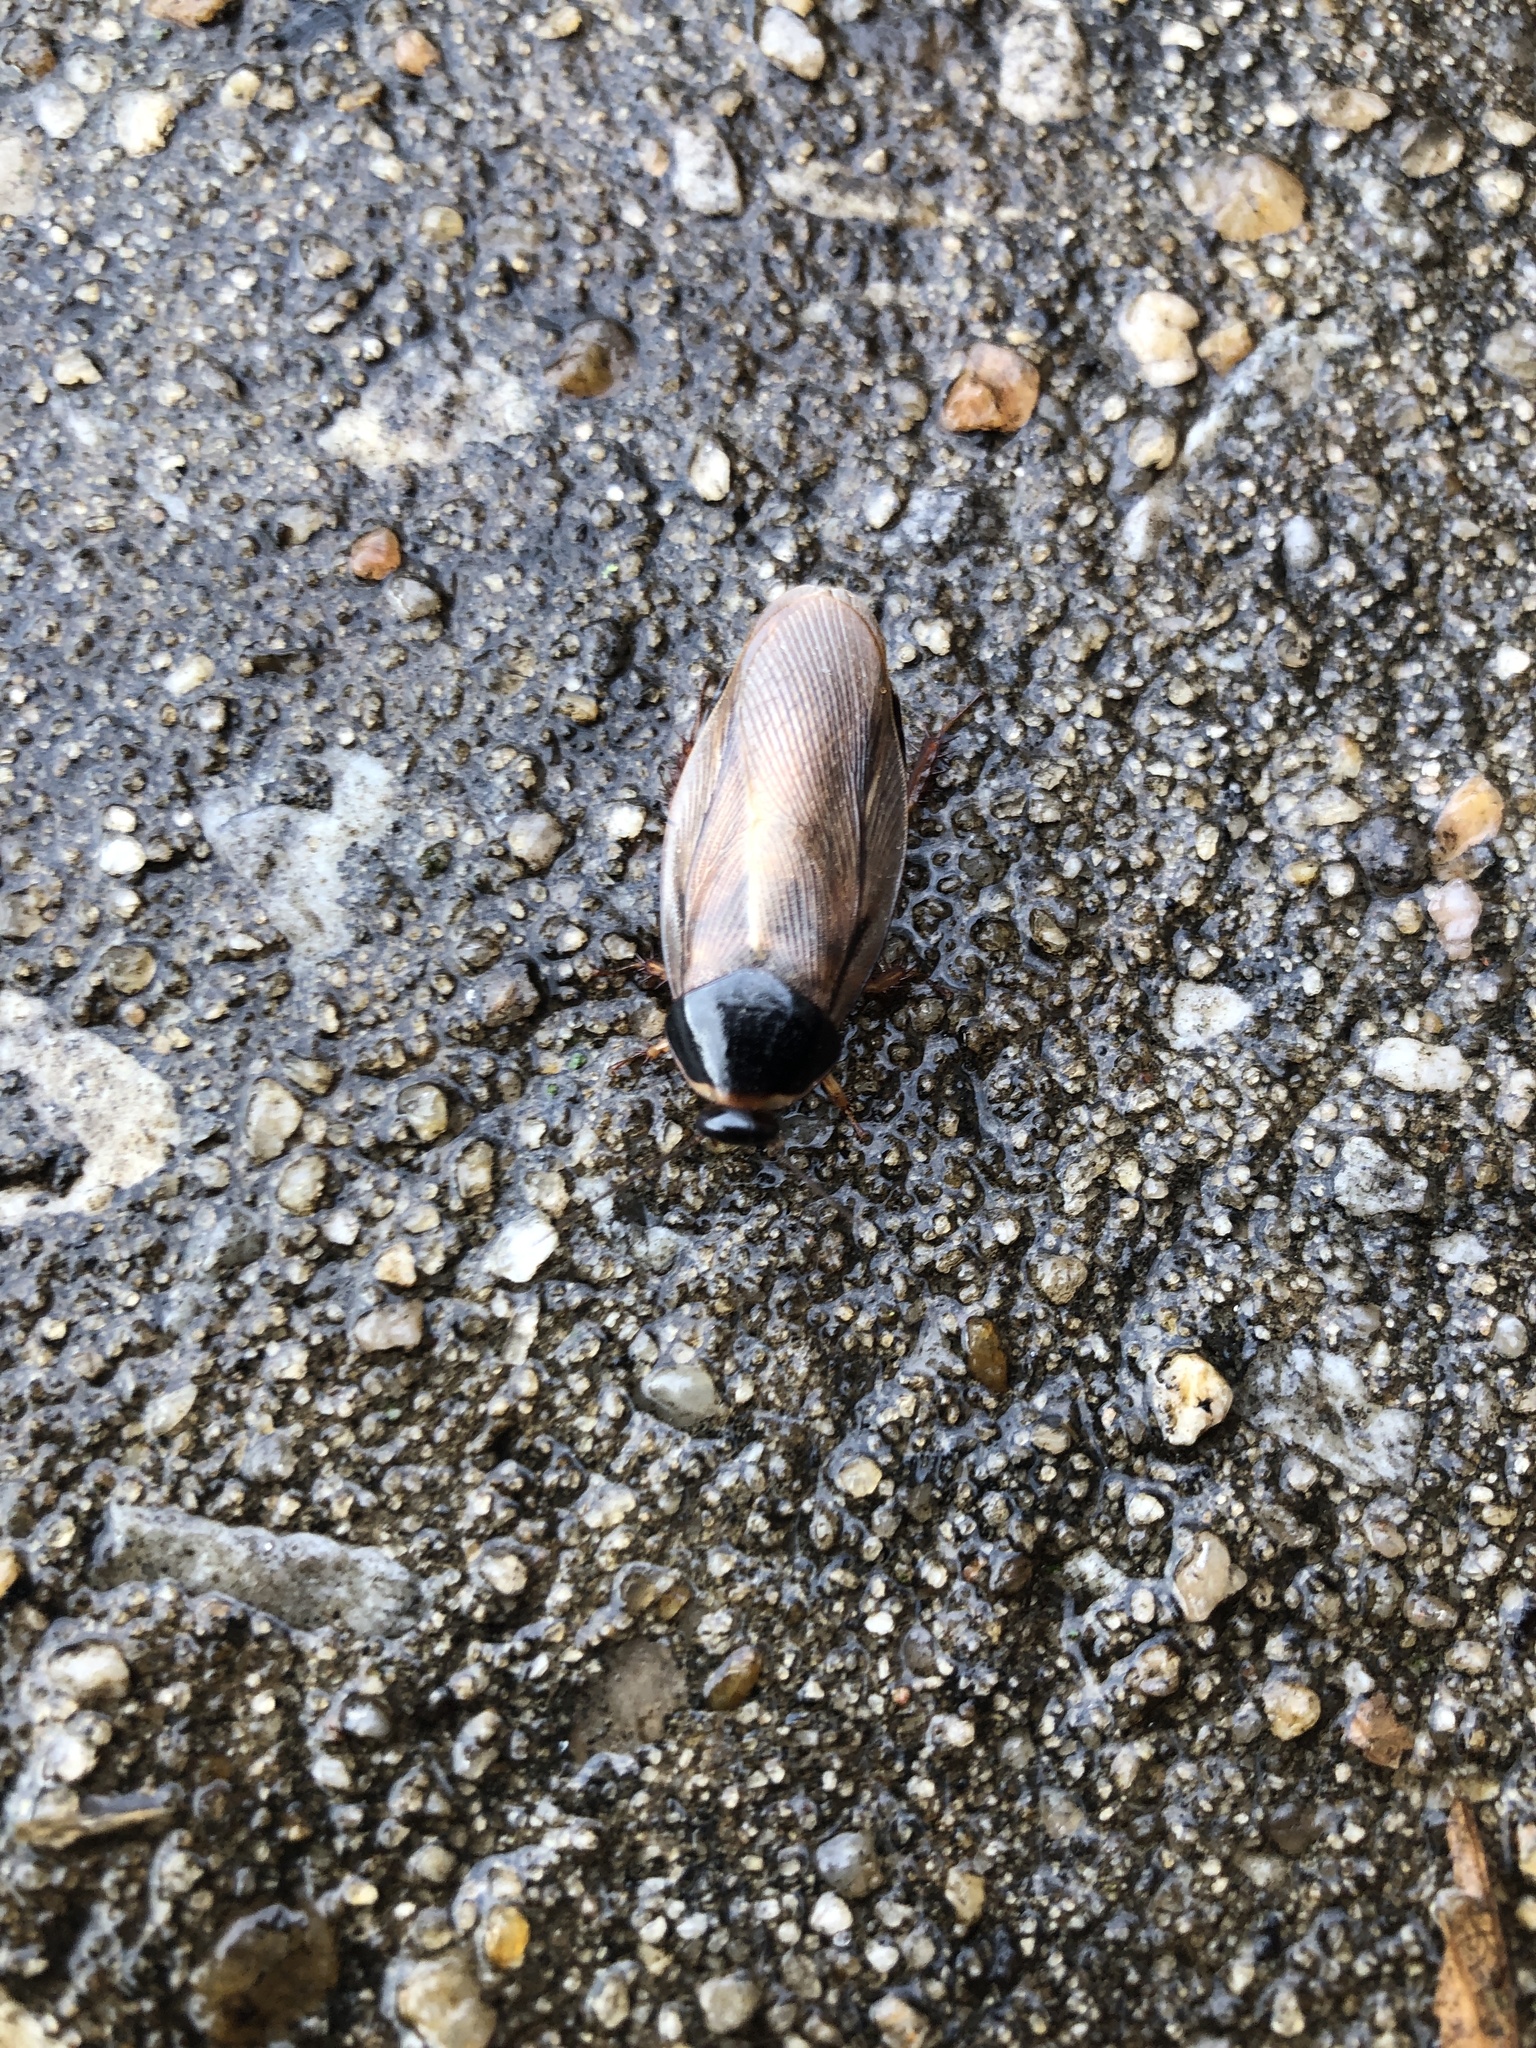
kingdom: Animalia
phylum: Arthropoda
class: Insecta
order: Blattodea
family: Blaberidae
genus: Pycnoscelus
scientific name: Pycnoscelus surinamensis
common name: Surinam cockroach
